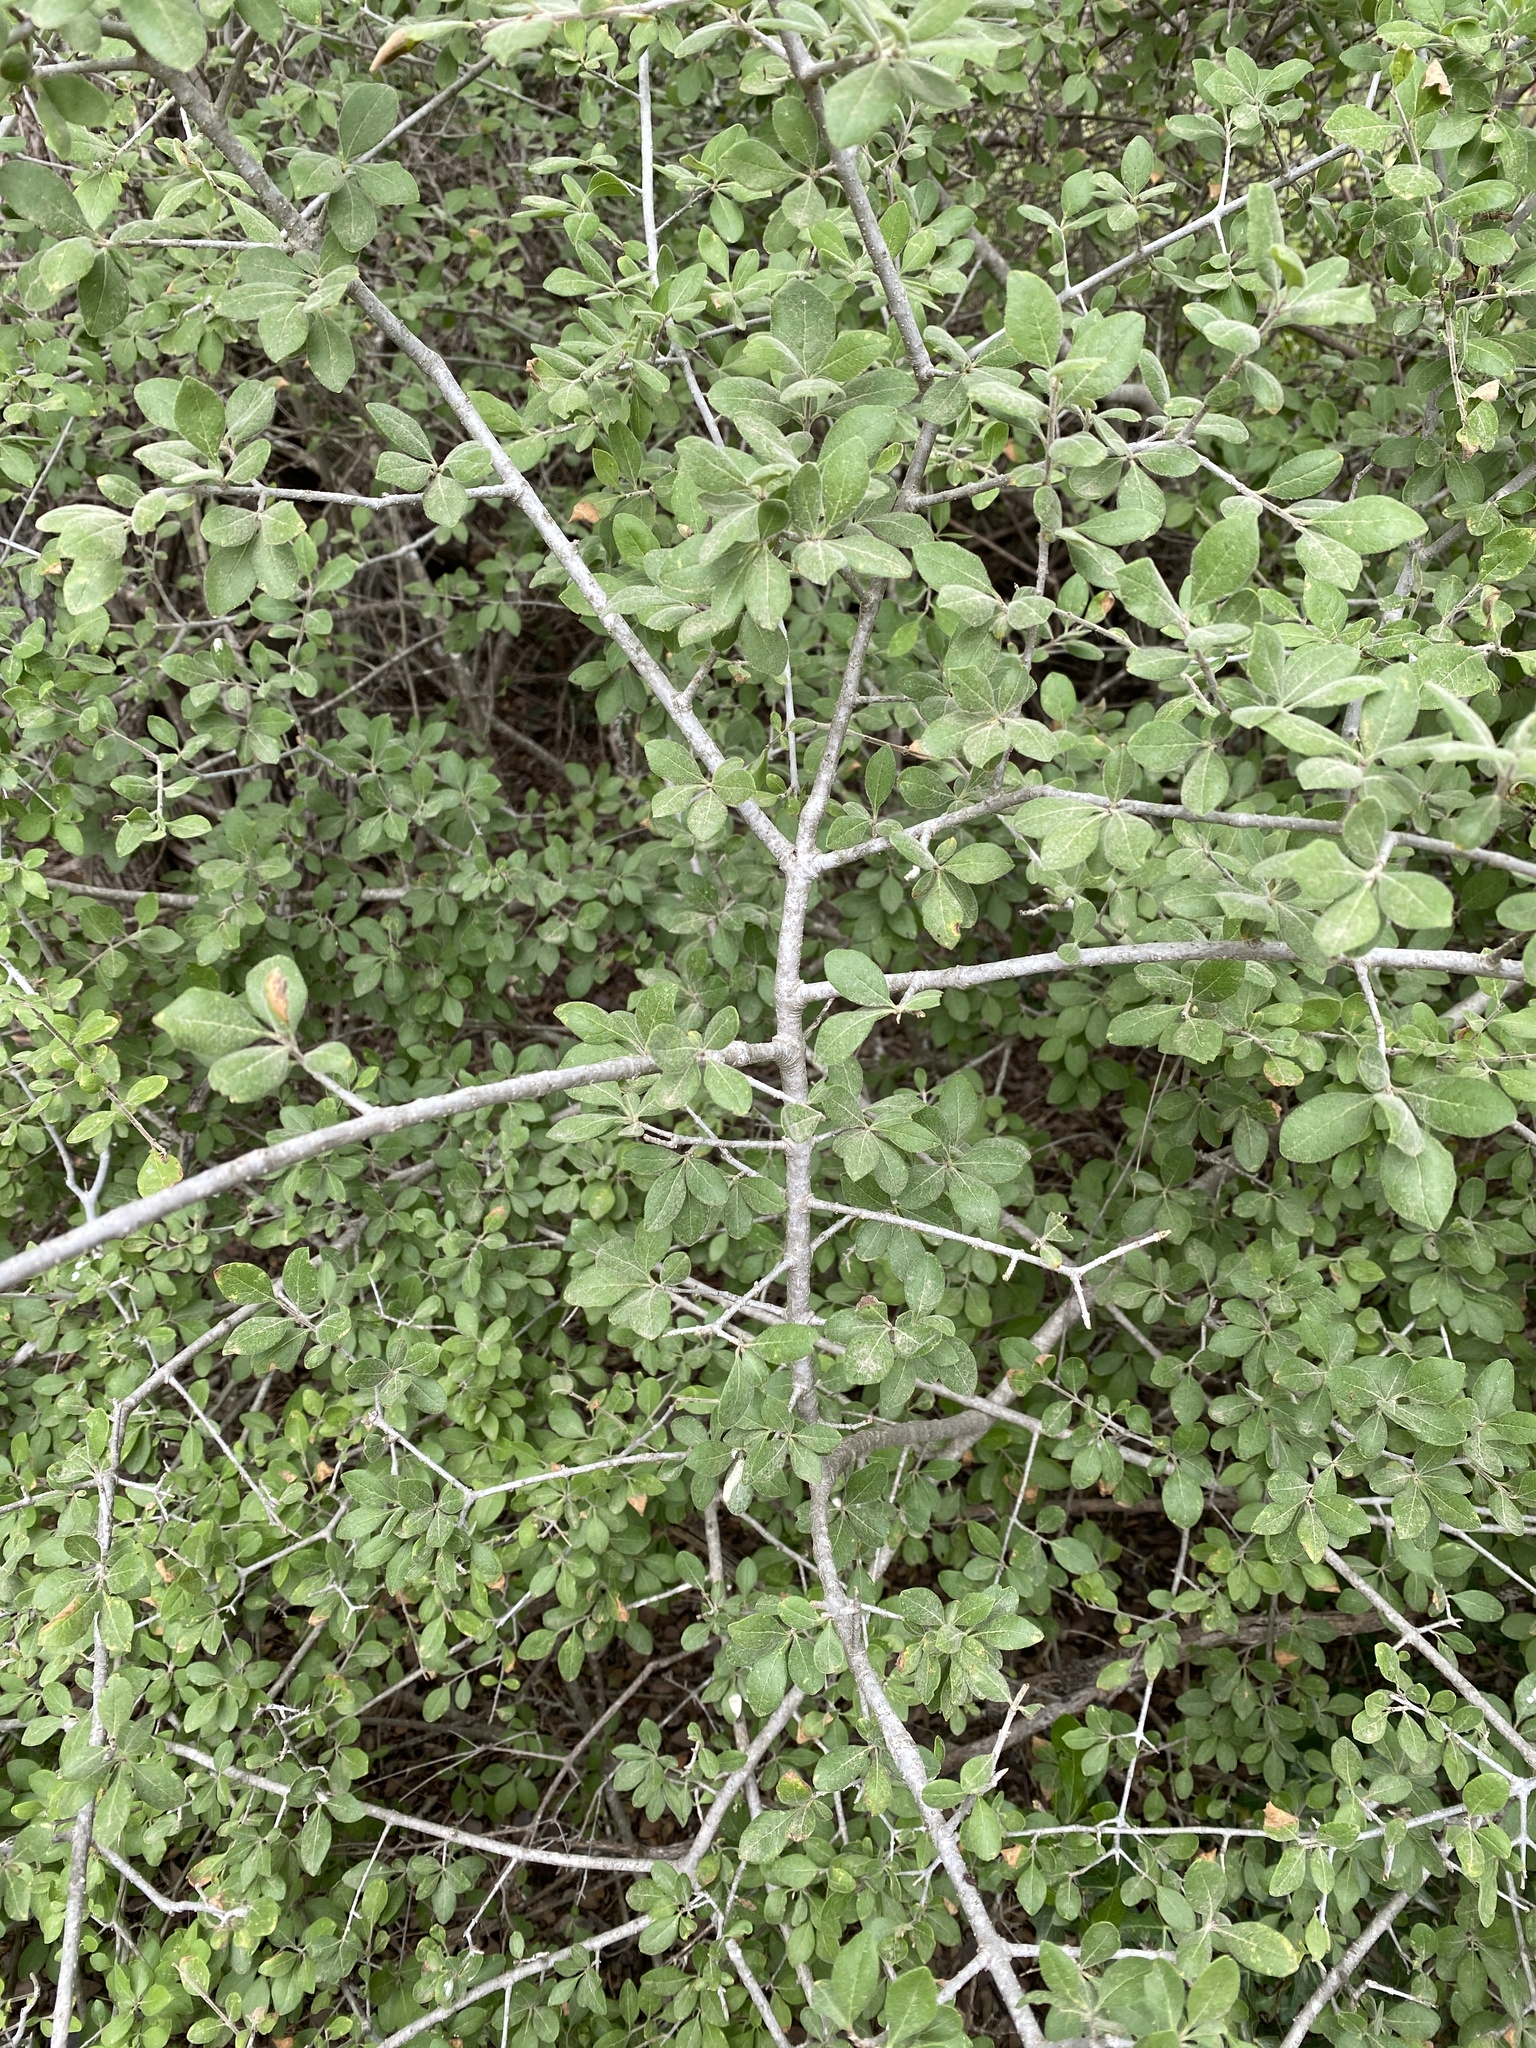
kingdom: Plantae
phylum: Tracheophyta
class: Magnoliopsida
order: Lamiales
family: Oleaceae
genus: Forestiera
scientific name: Forestiera pubescens
